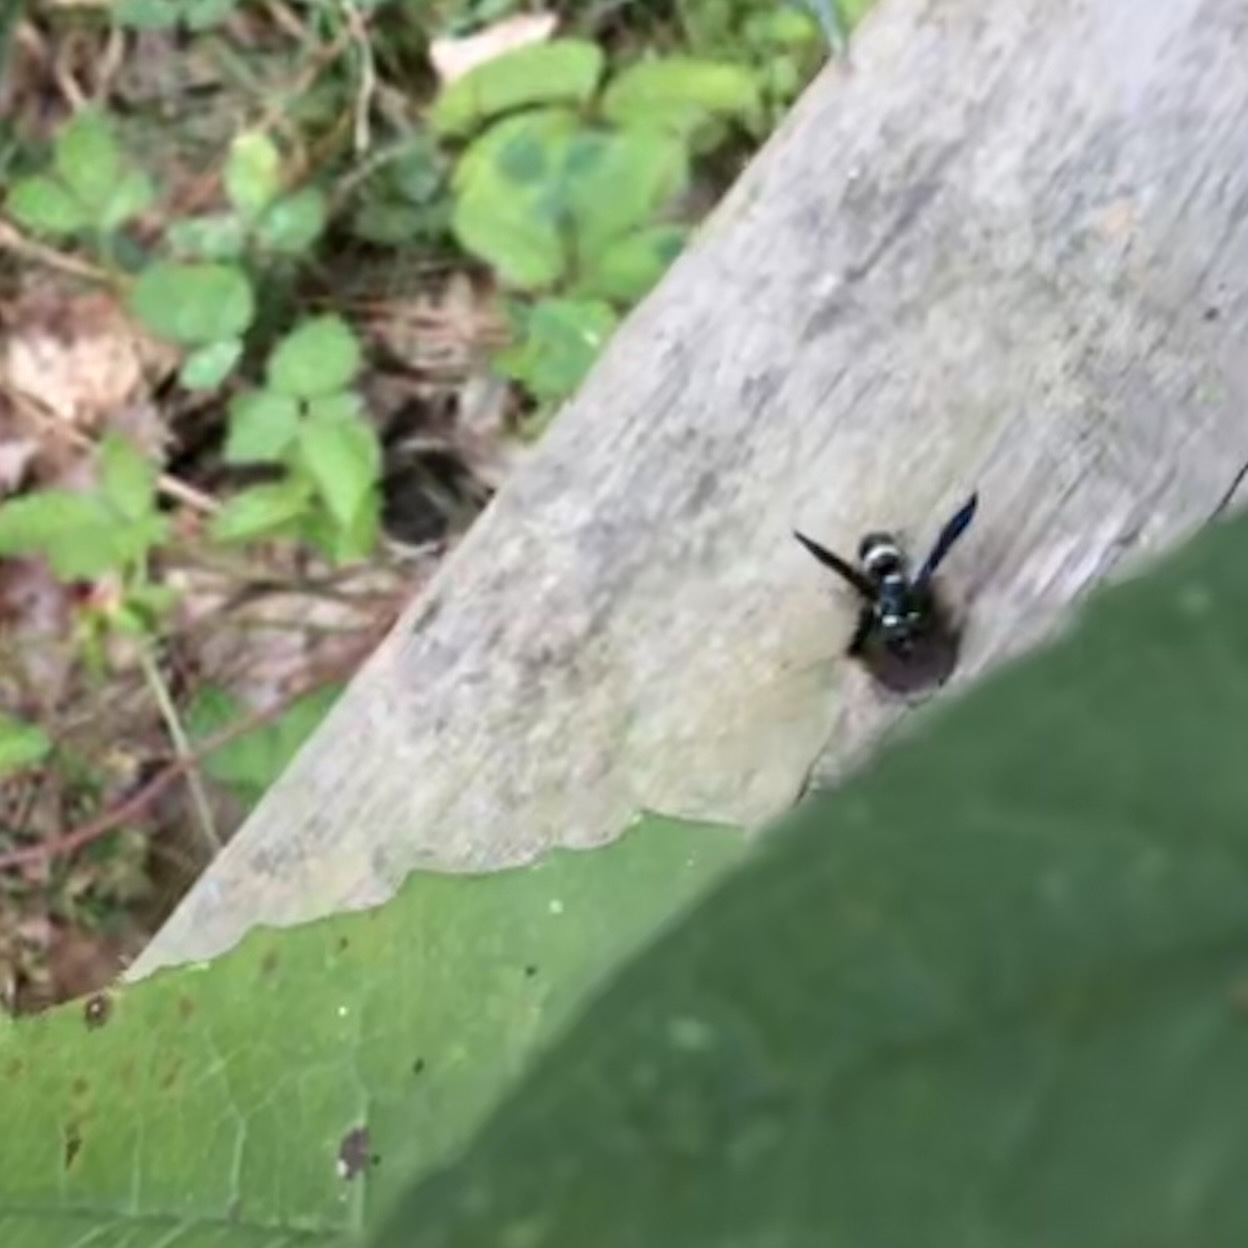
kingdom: Animalia
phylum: Arthropoda
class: Insecta
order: Hymenoptera
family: Eumenidae
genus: Euodynerus
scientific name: Euodynerus
